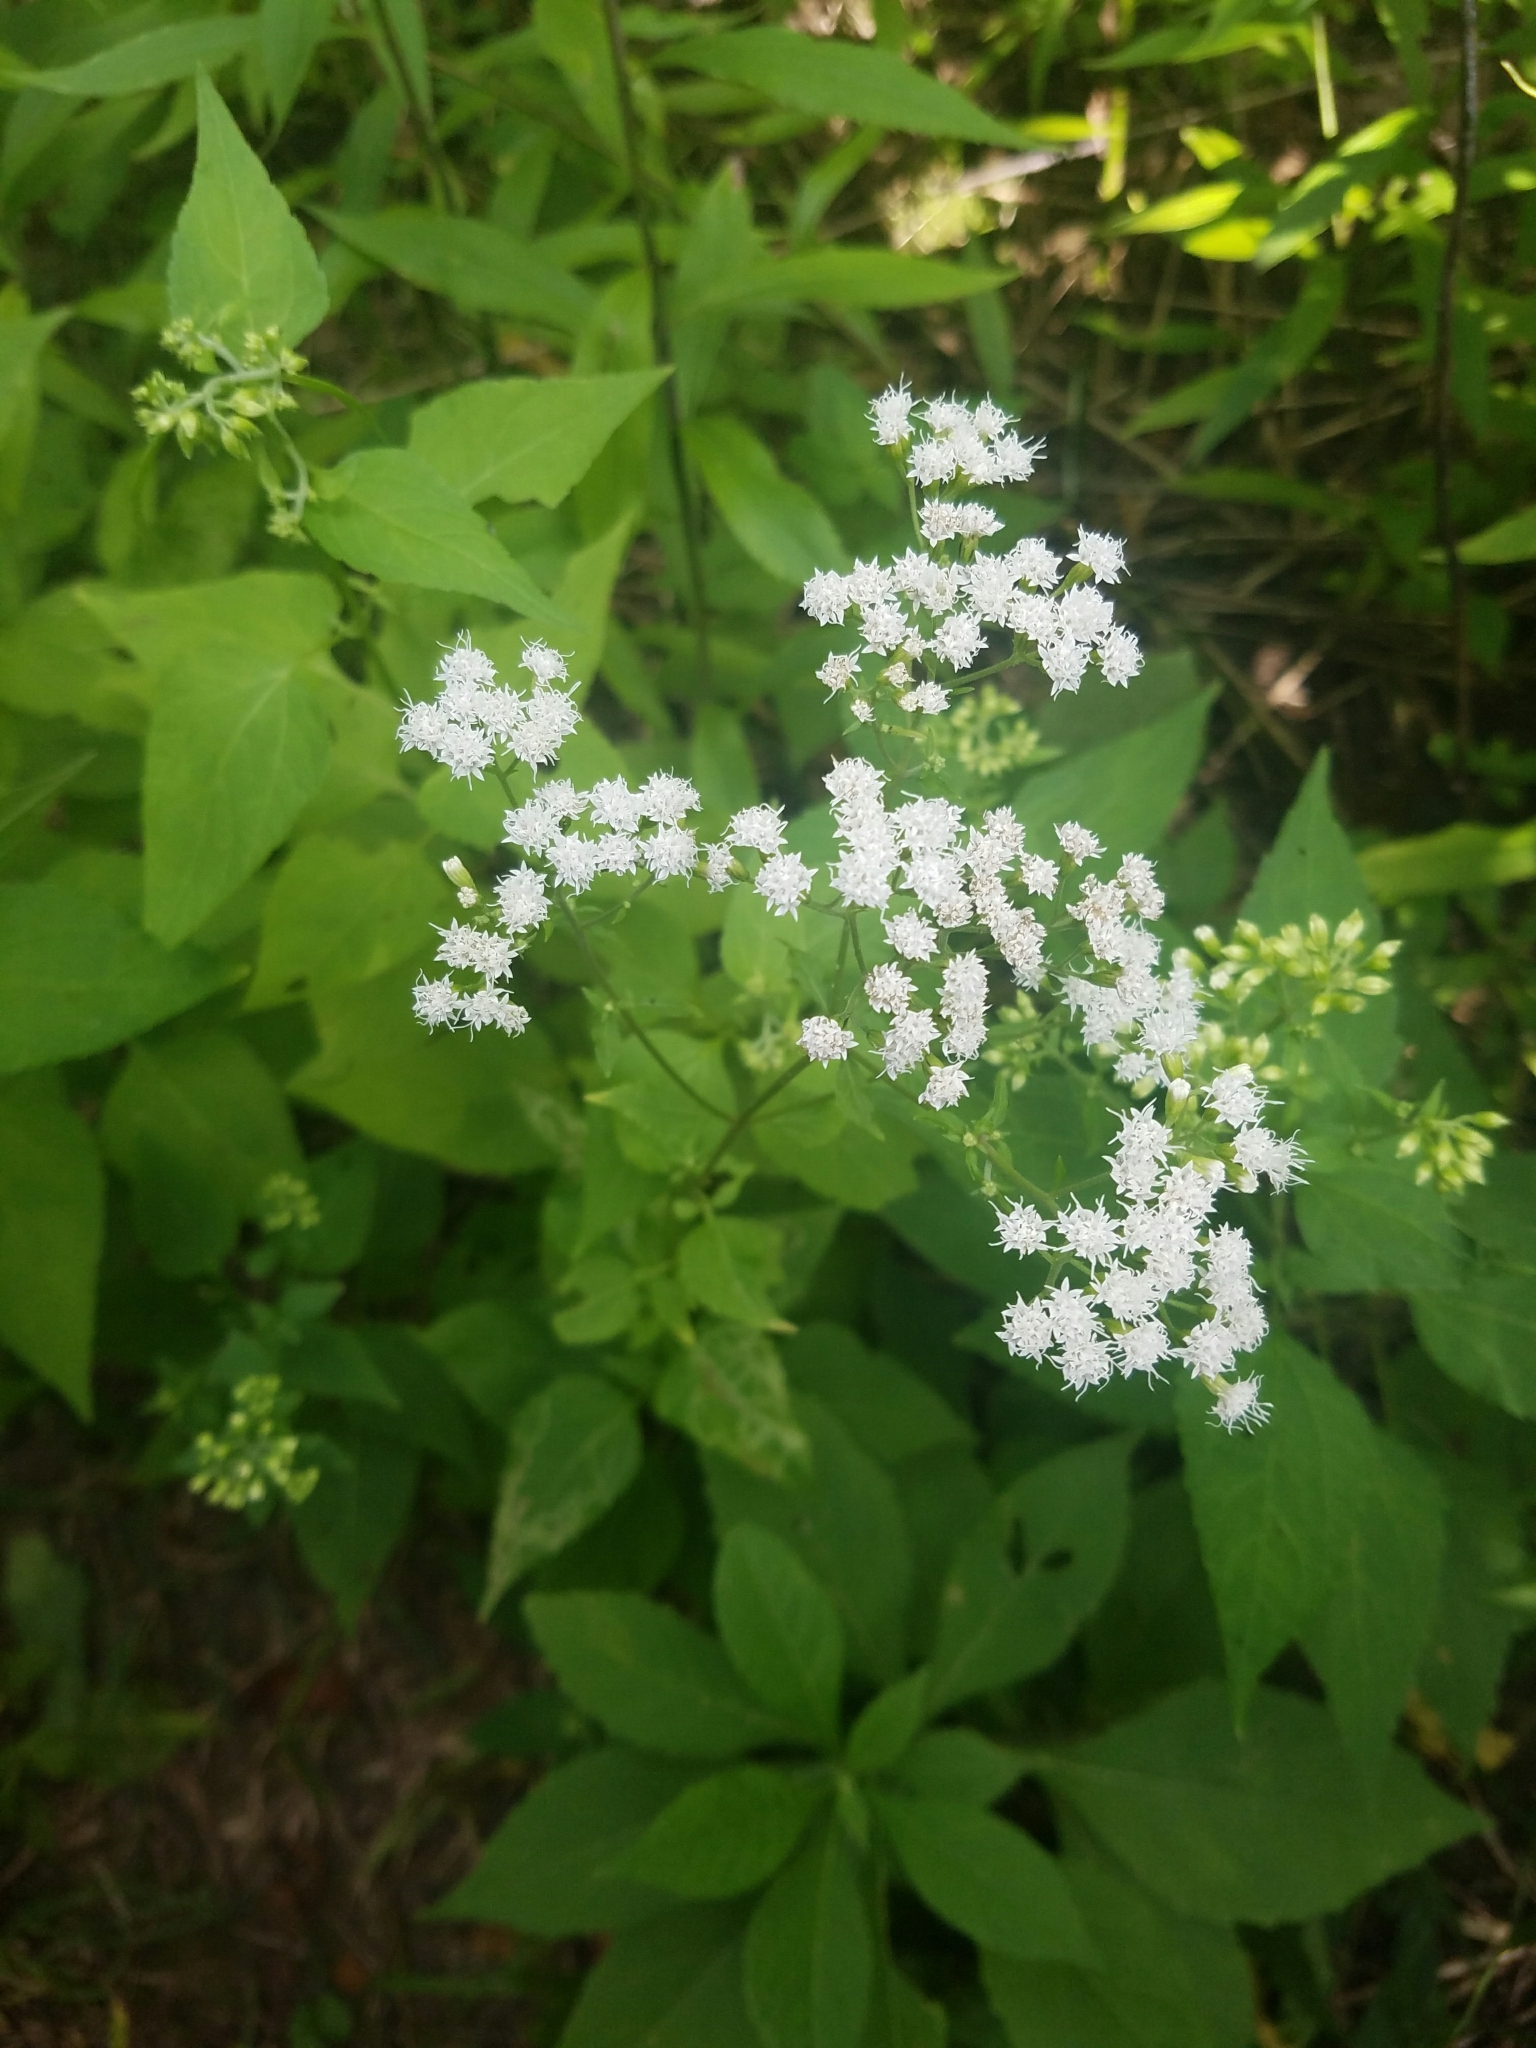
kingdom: Plantae
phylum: Tracheophyta
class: Magnoliopsida
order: Asterales
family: Asteraceae
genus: Ageratina
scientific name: Ageratina altissima
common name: White snakeroot
